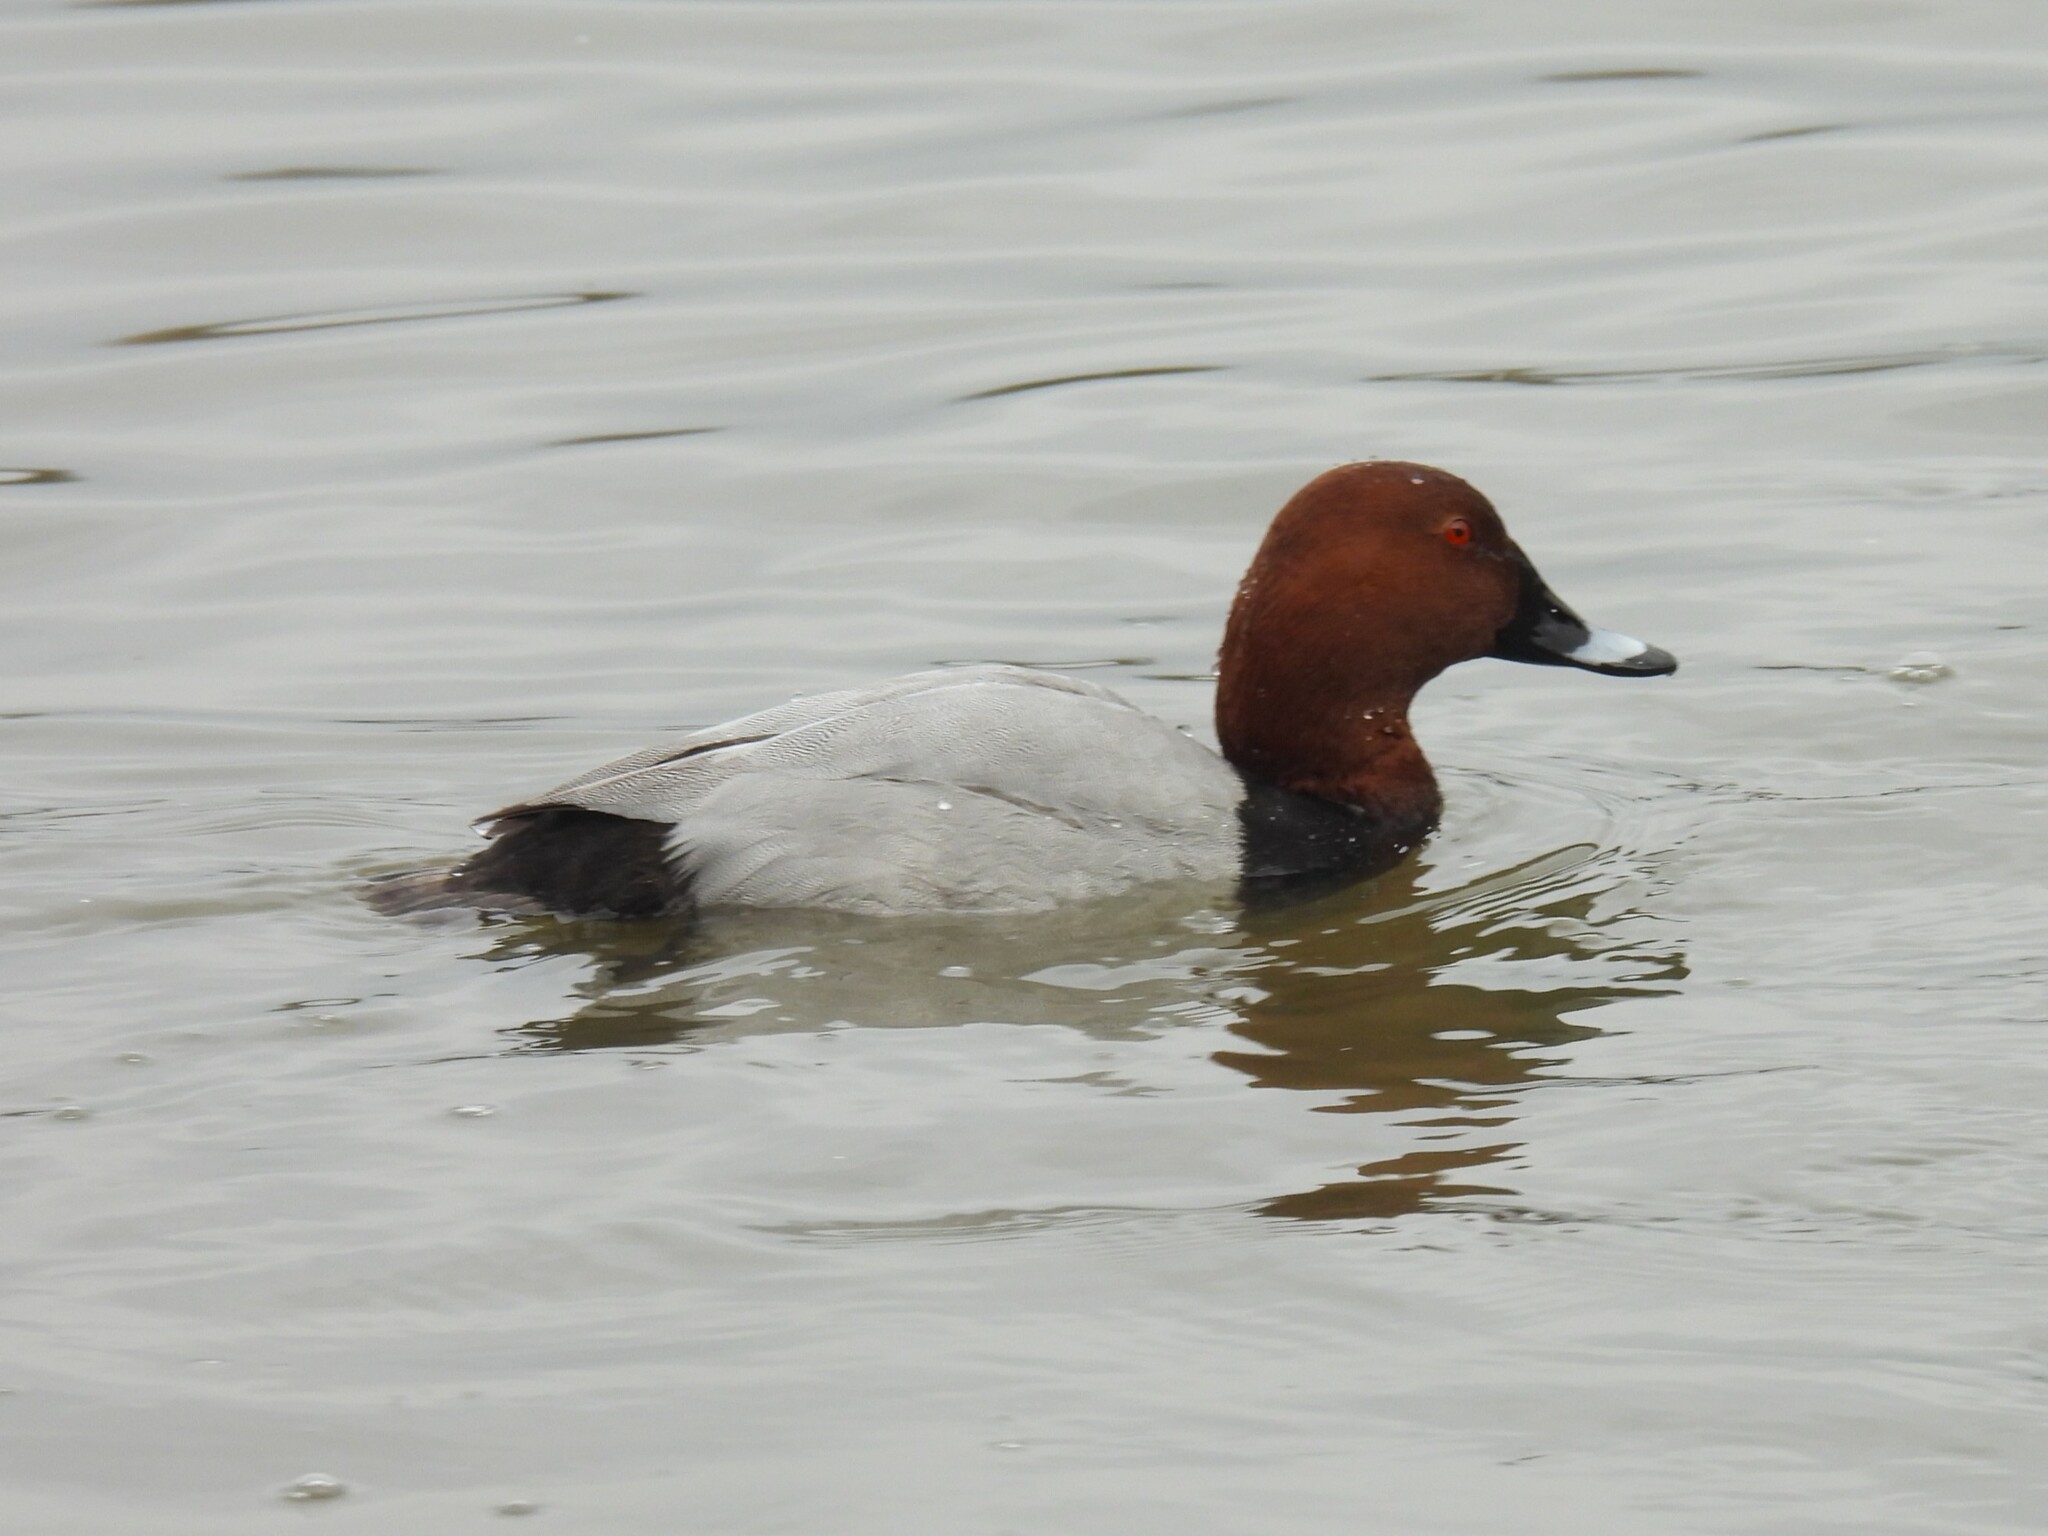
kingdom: Animalia
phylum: Chordata
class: Aves
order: Anseriformes
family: Anatidae
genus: Aythya
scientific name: Aythya ferina
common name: Common pochard
